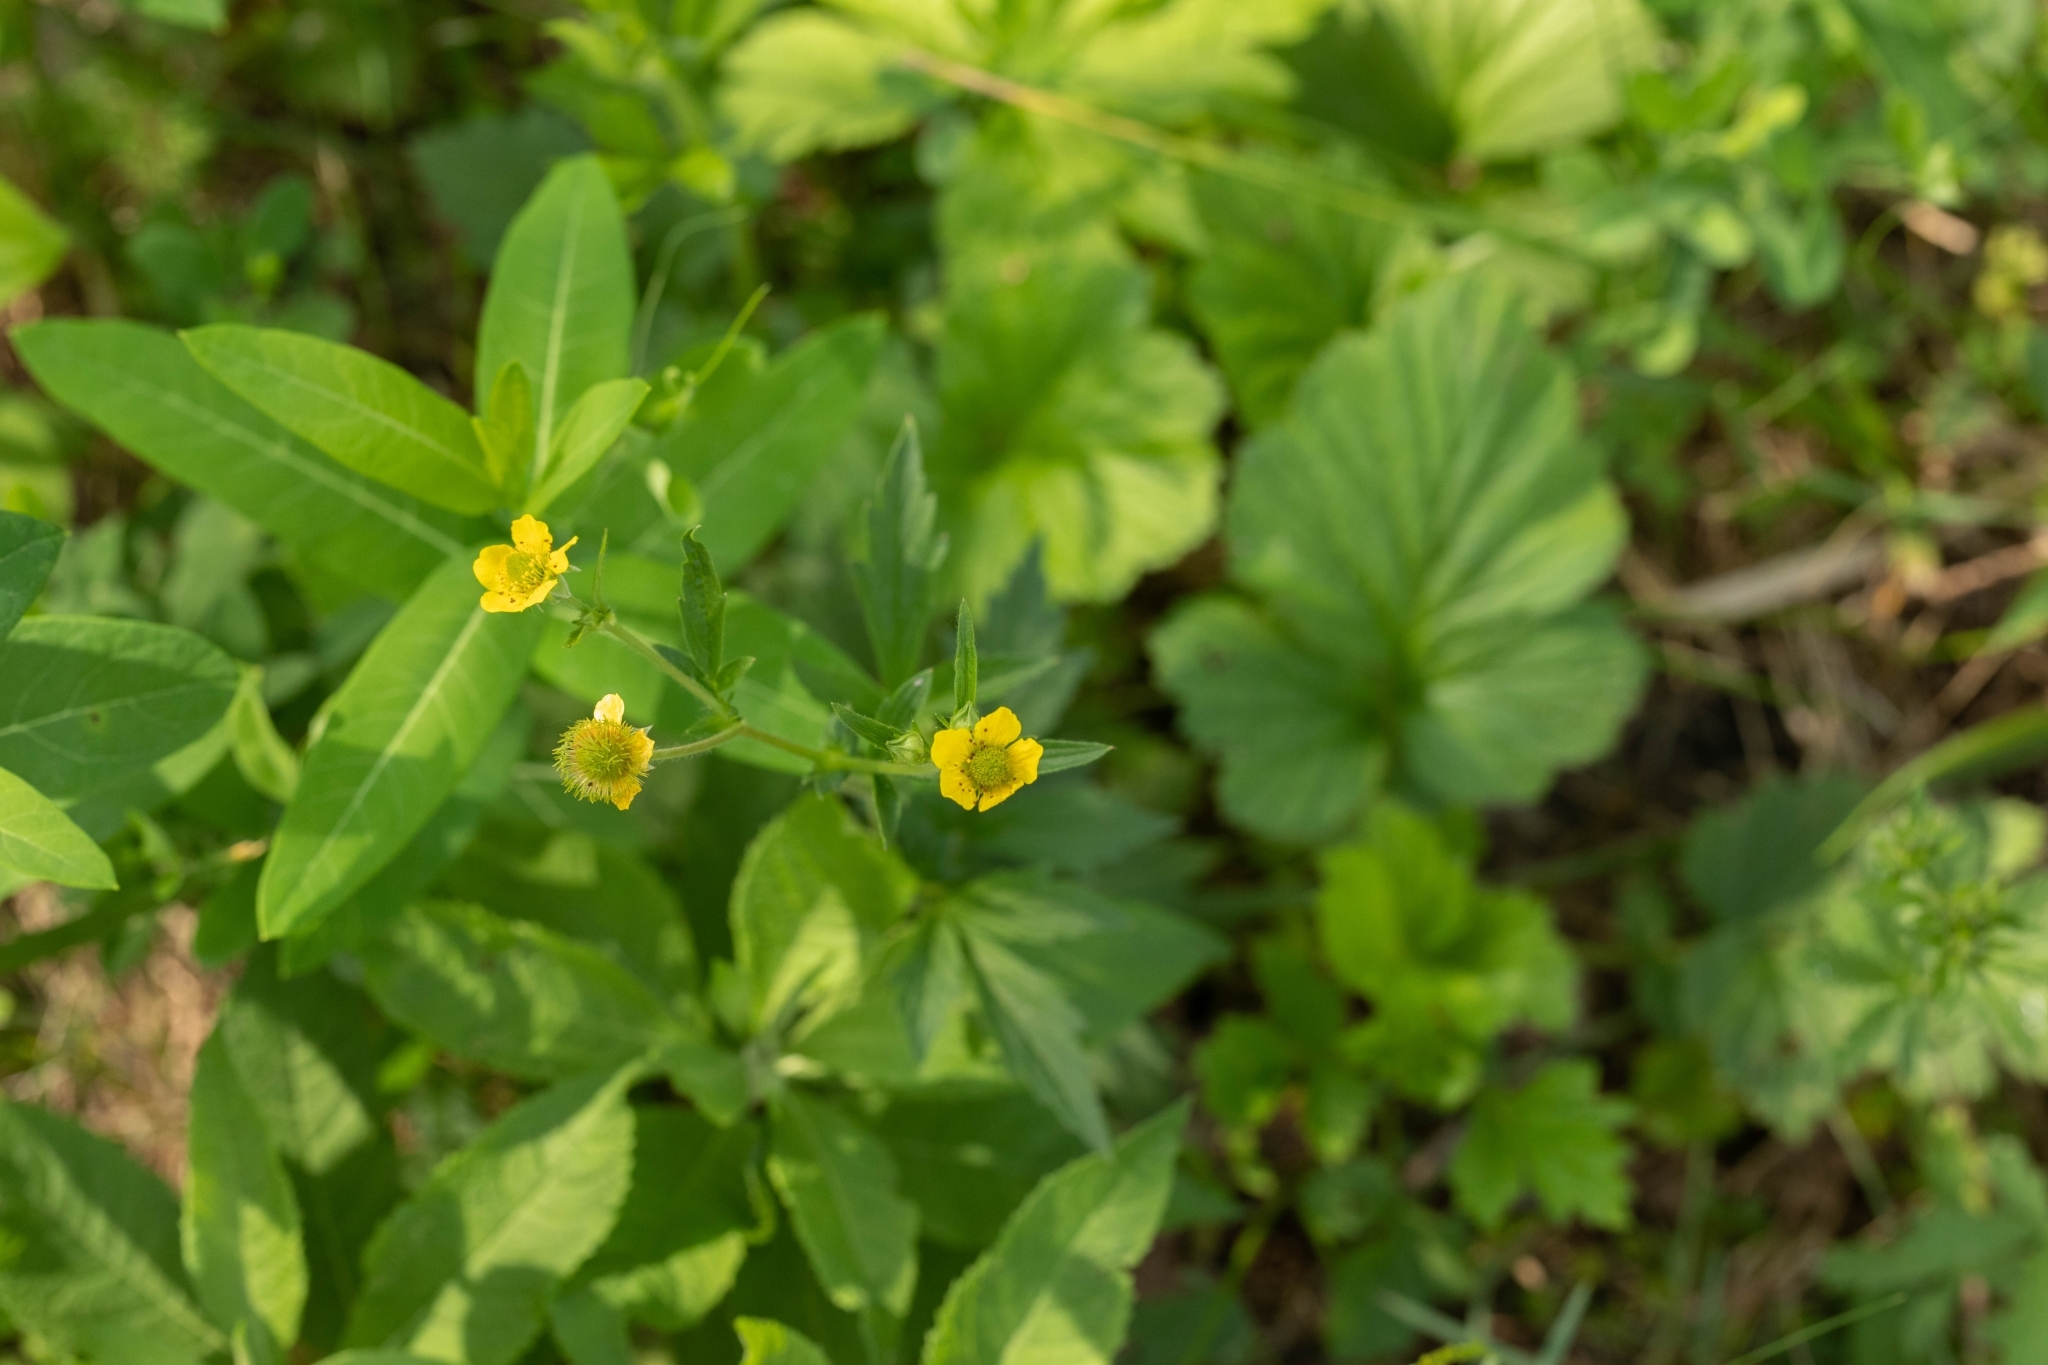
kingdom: Plantae
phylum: Tracheophyta
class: Magnoliopsida
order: Rosales
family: Rosaceae
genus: Geum
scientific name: Geum aleppicum
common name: Yellow avens
